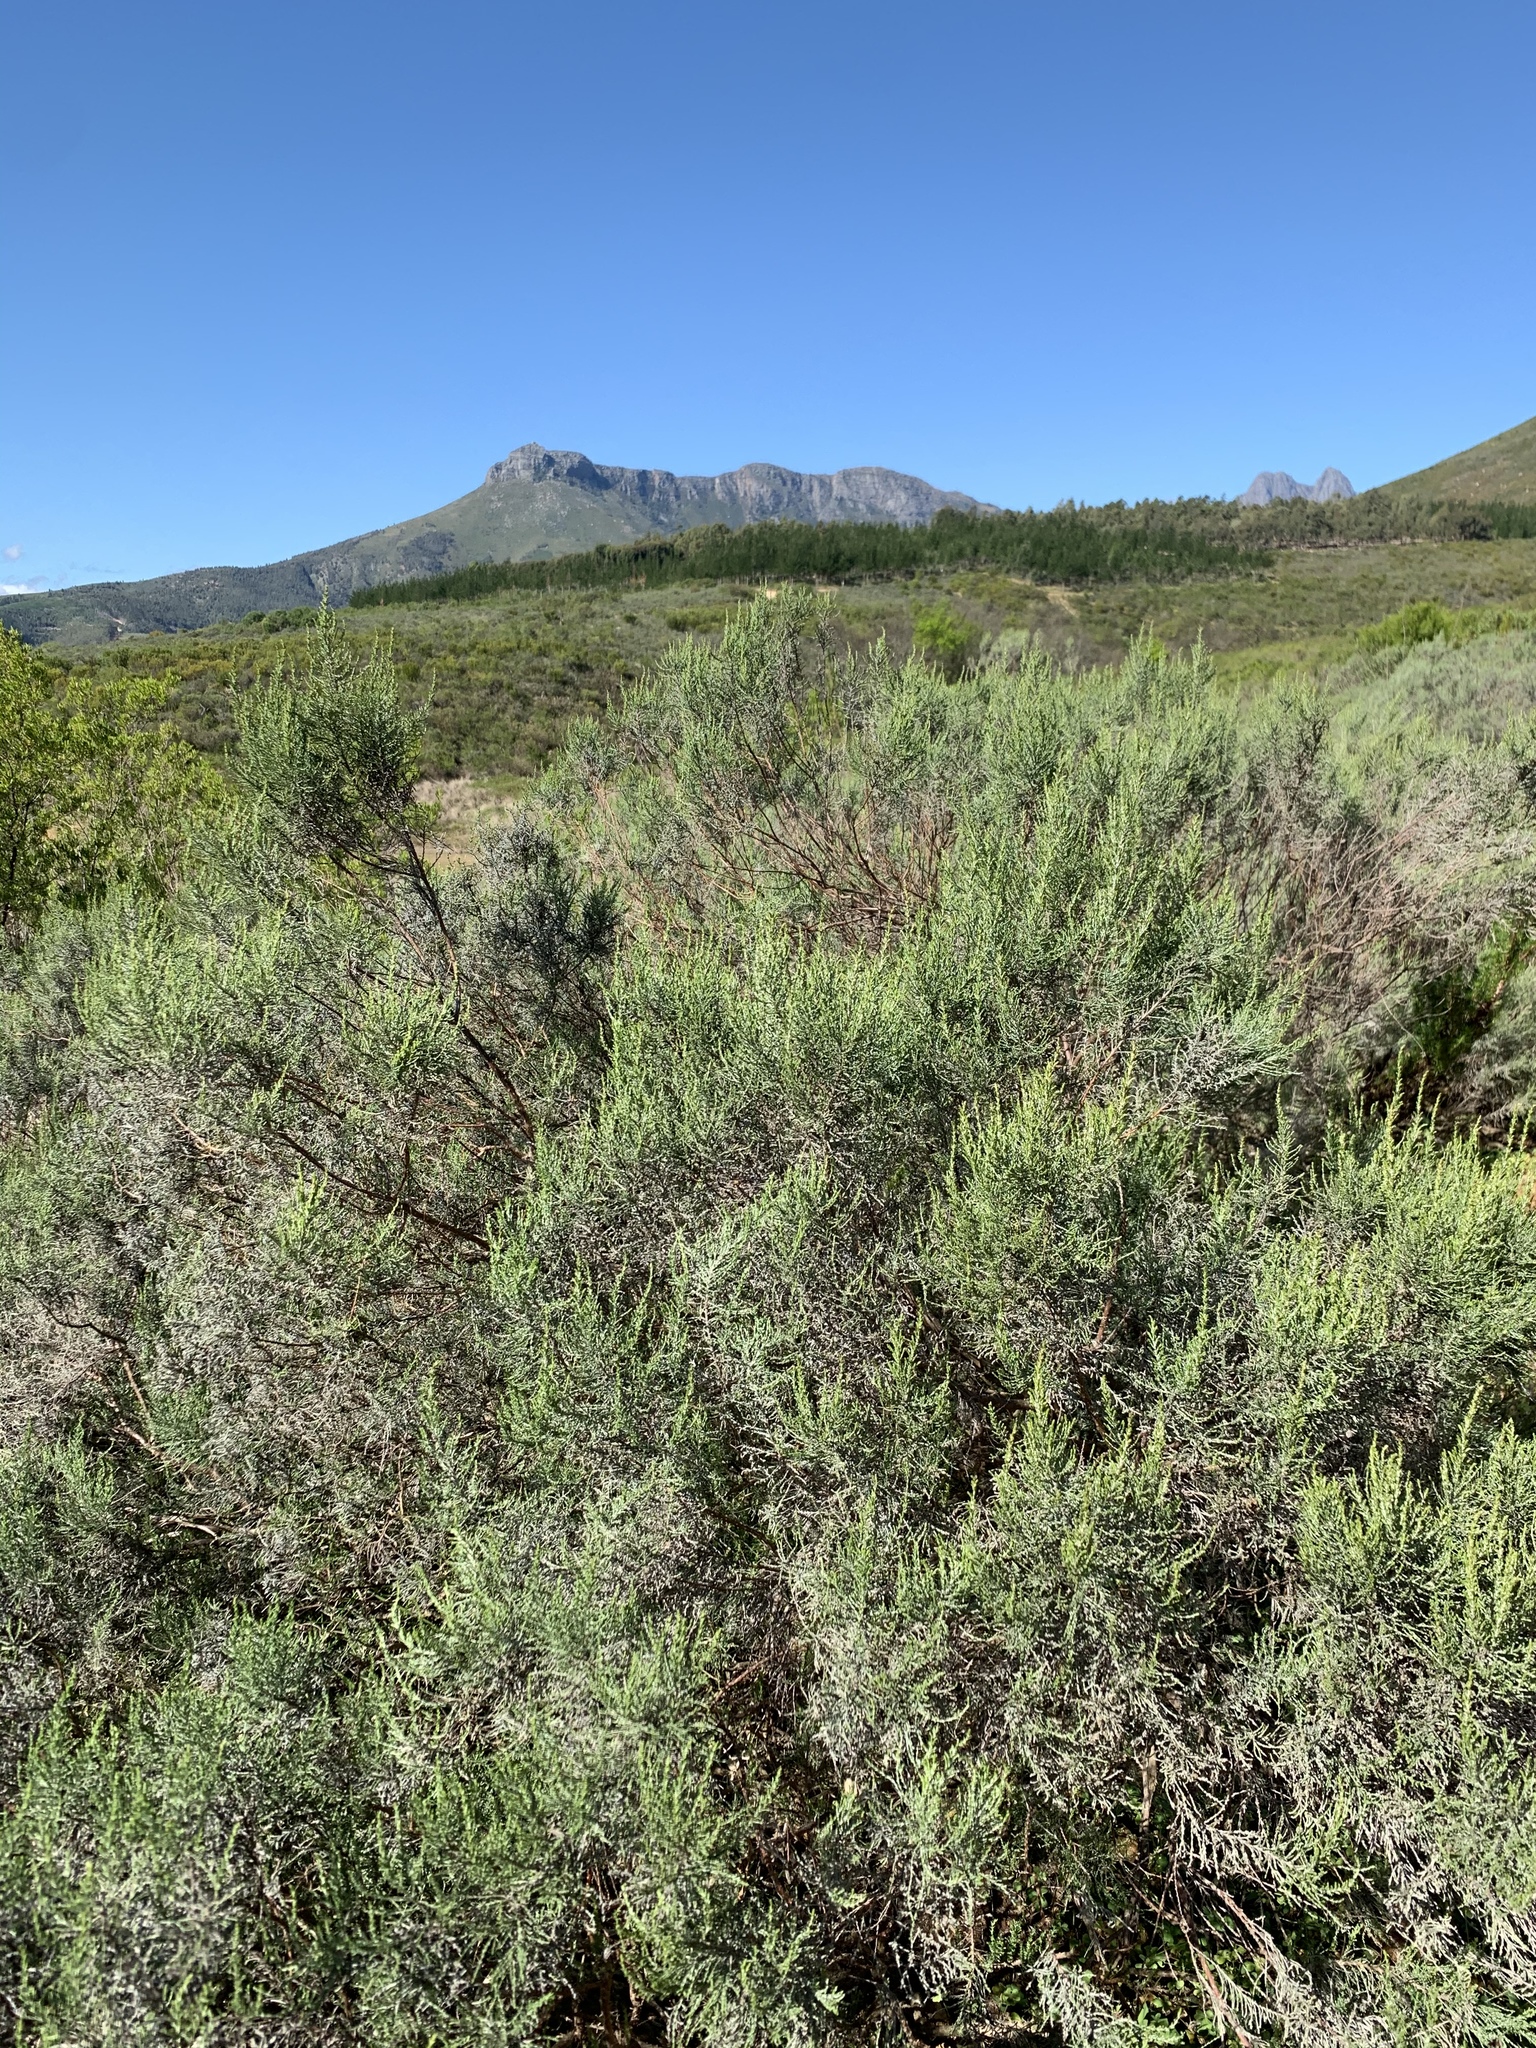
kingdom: Plantae
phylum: Tracheophyta
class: Magnoliopsida
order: Asterales
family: Asteraceae
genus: Dicerothamnus
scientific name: Dicerothamnus rhinocerotis
